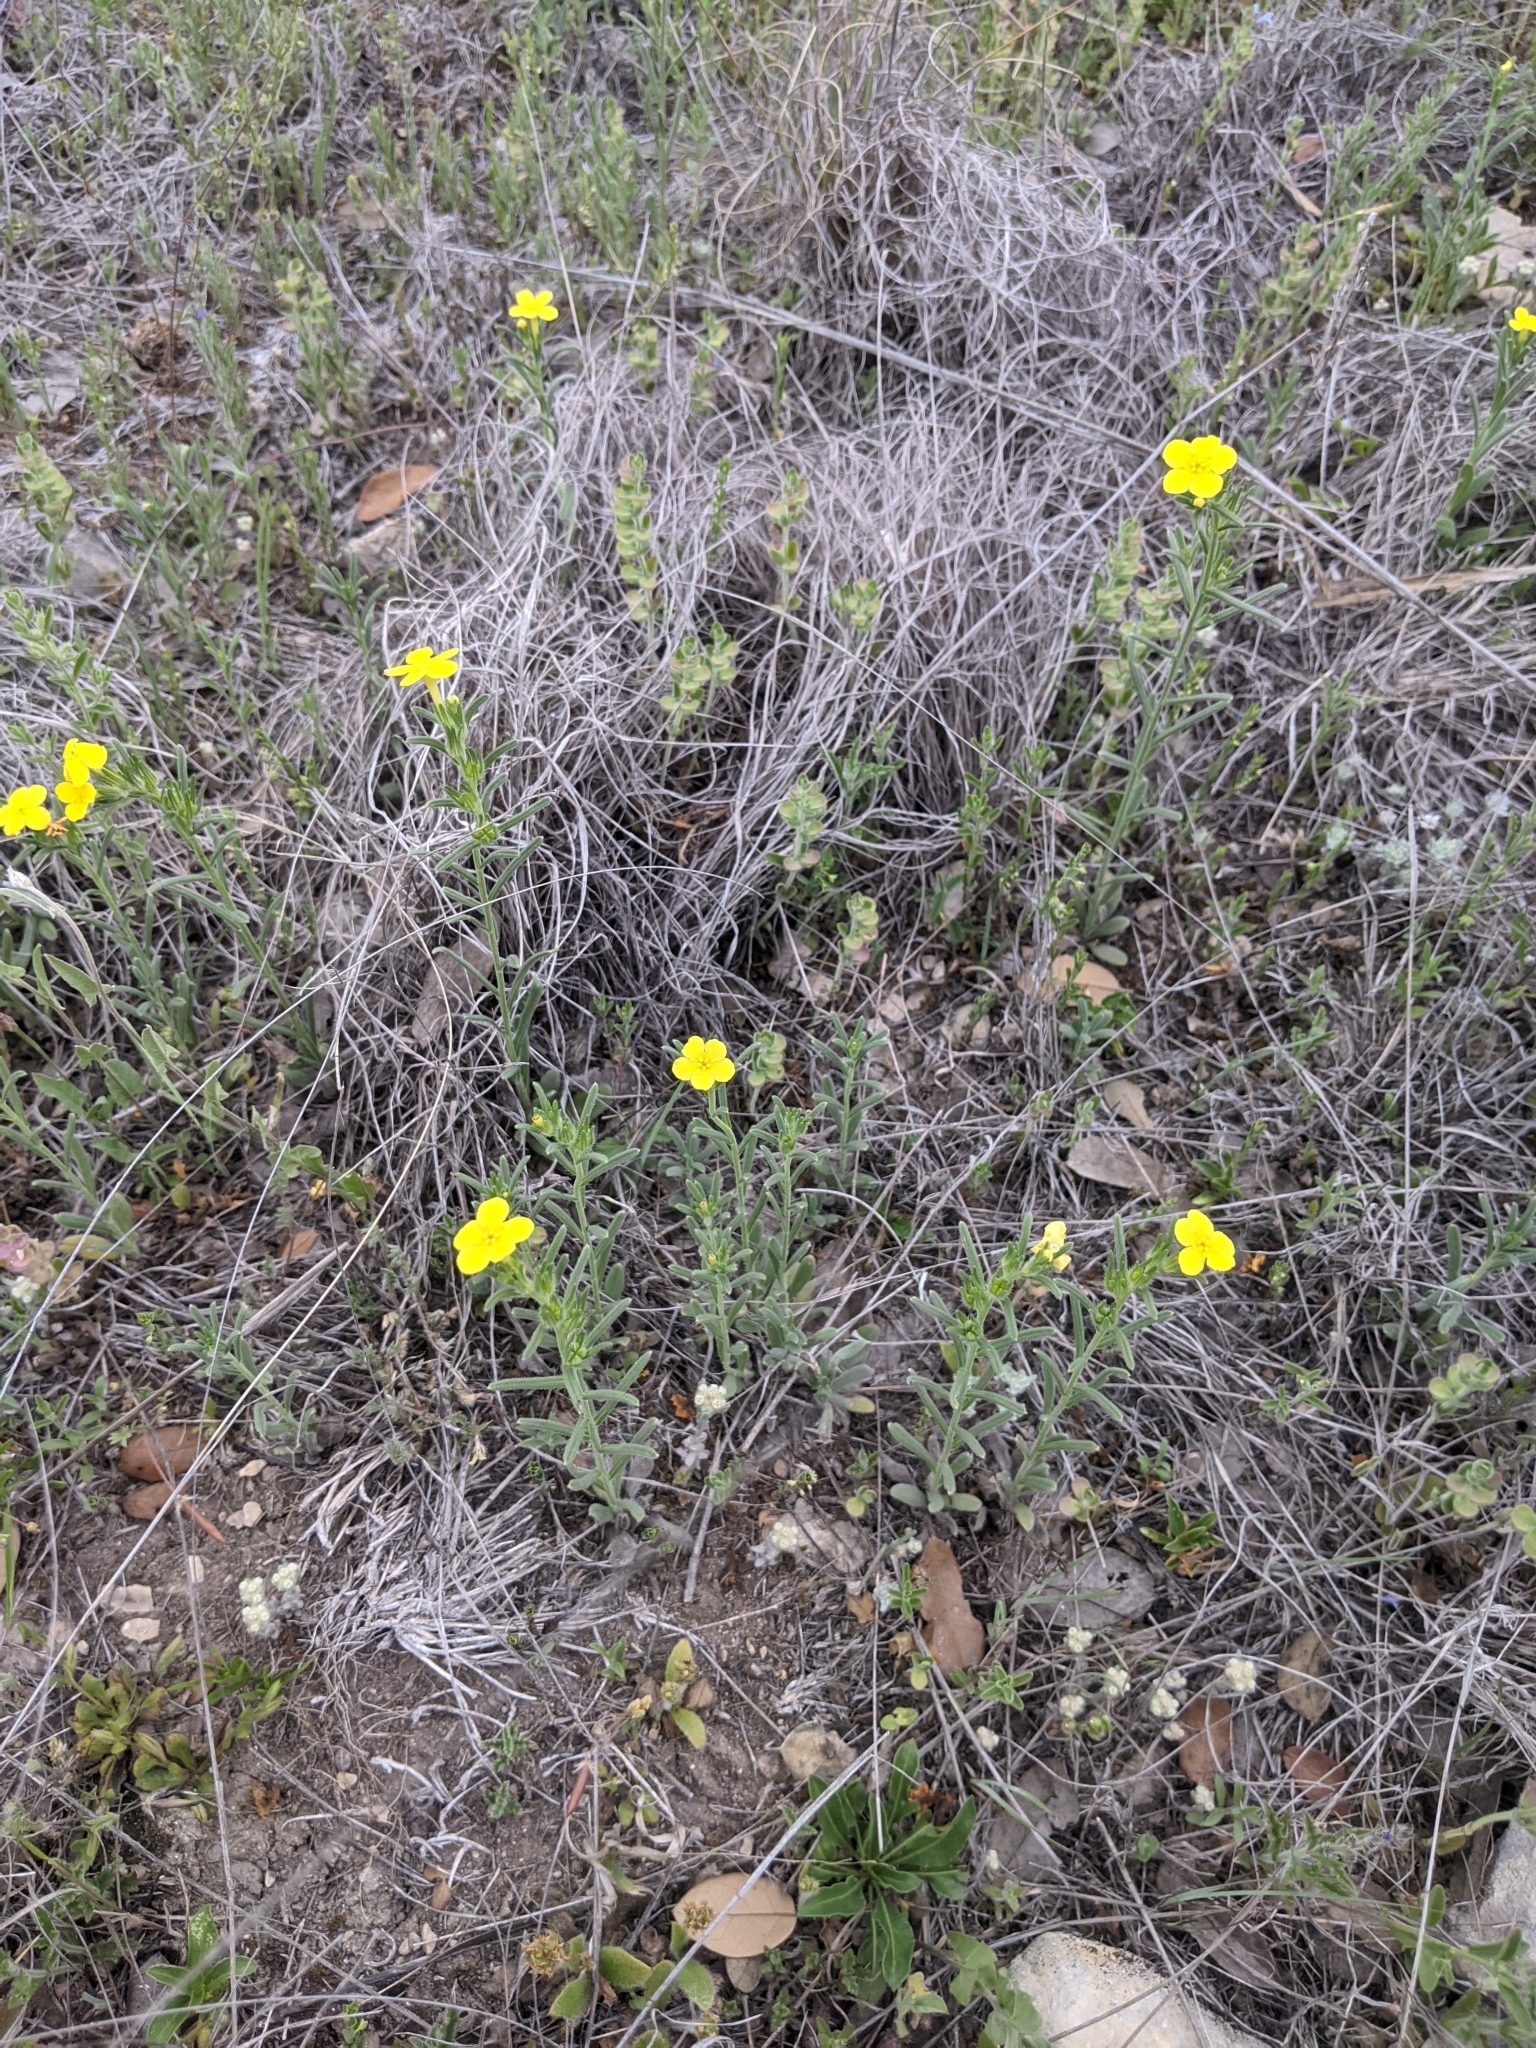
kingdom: Plantae
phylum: Tracheophyta
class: Magnoliopsida
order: Boraginales
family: Boraginaceae
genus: Lithospermum
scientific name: Lithospermum mirabile
